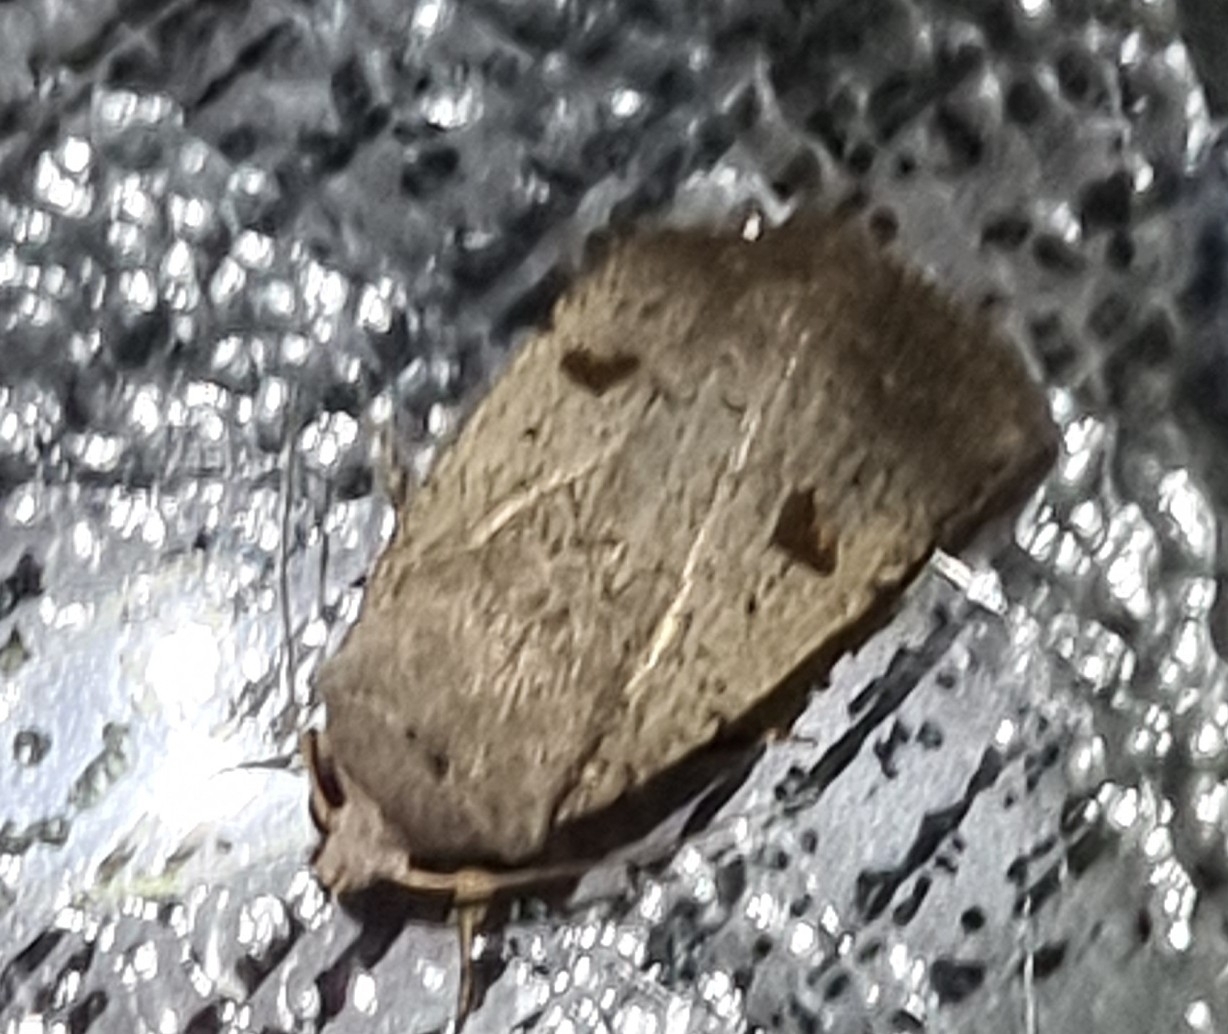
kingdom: Animalia
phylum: Arthropoda
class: Insecta
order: Lepidoptera
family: Noctuidae
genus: Proteuxoa
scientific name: Proteuxoa tibiata
